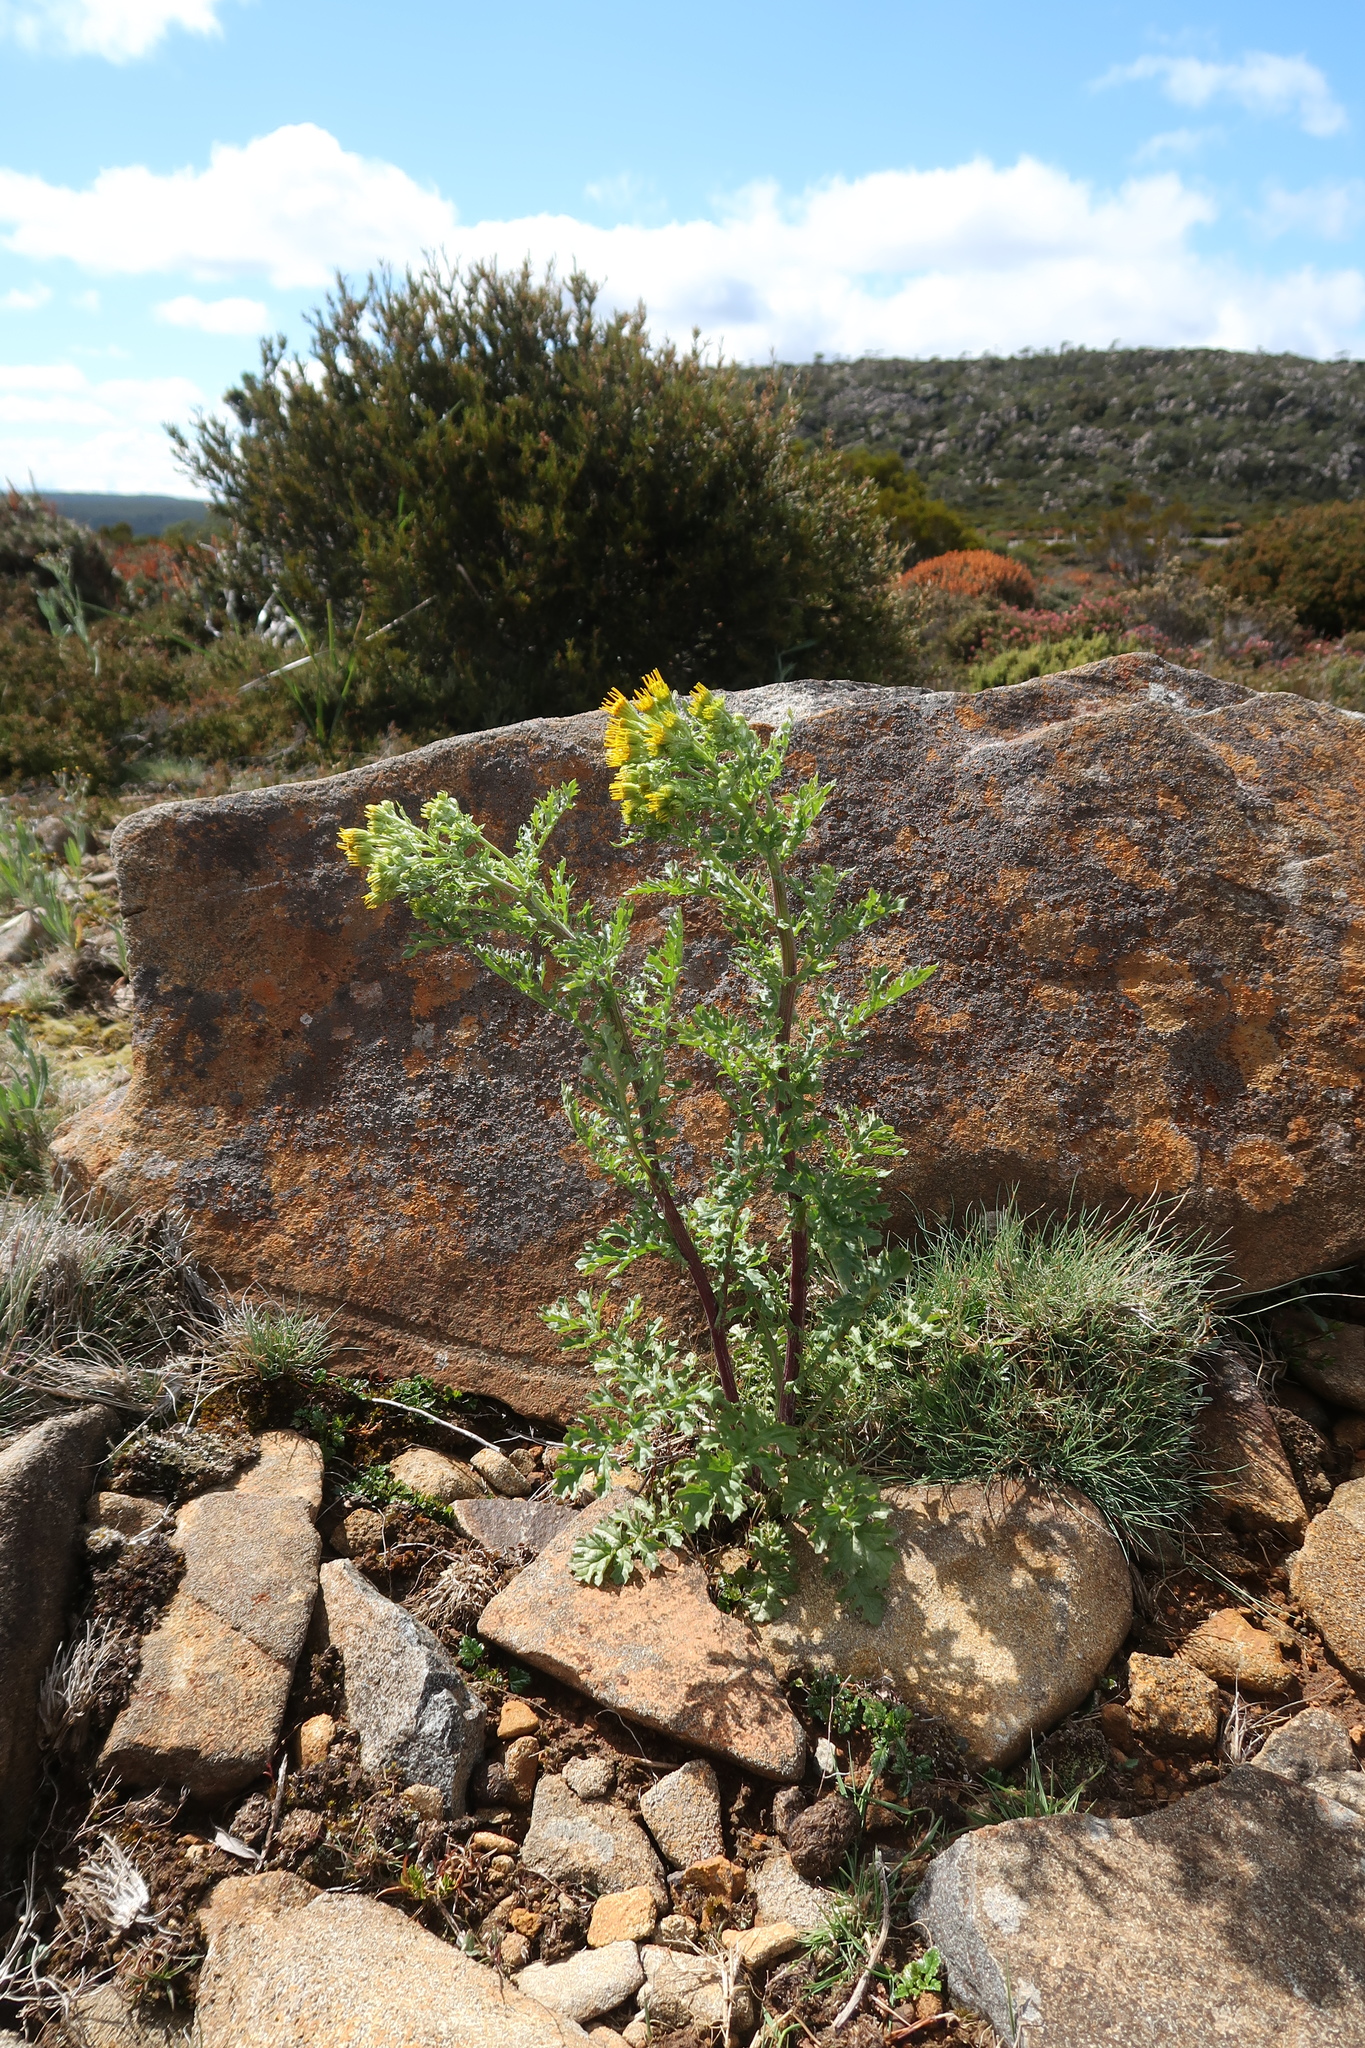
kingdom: Plantae
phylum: Tracheophyta
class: Magnoliopsida
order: Asterales
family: Asteraceae
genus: Jacobaea
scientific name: Jacobaea vulgaris
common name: Stinking willie
